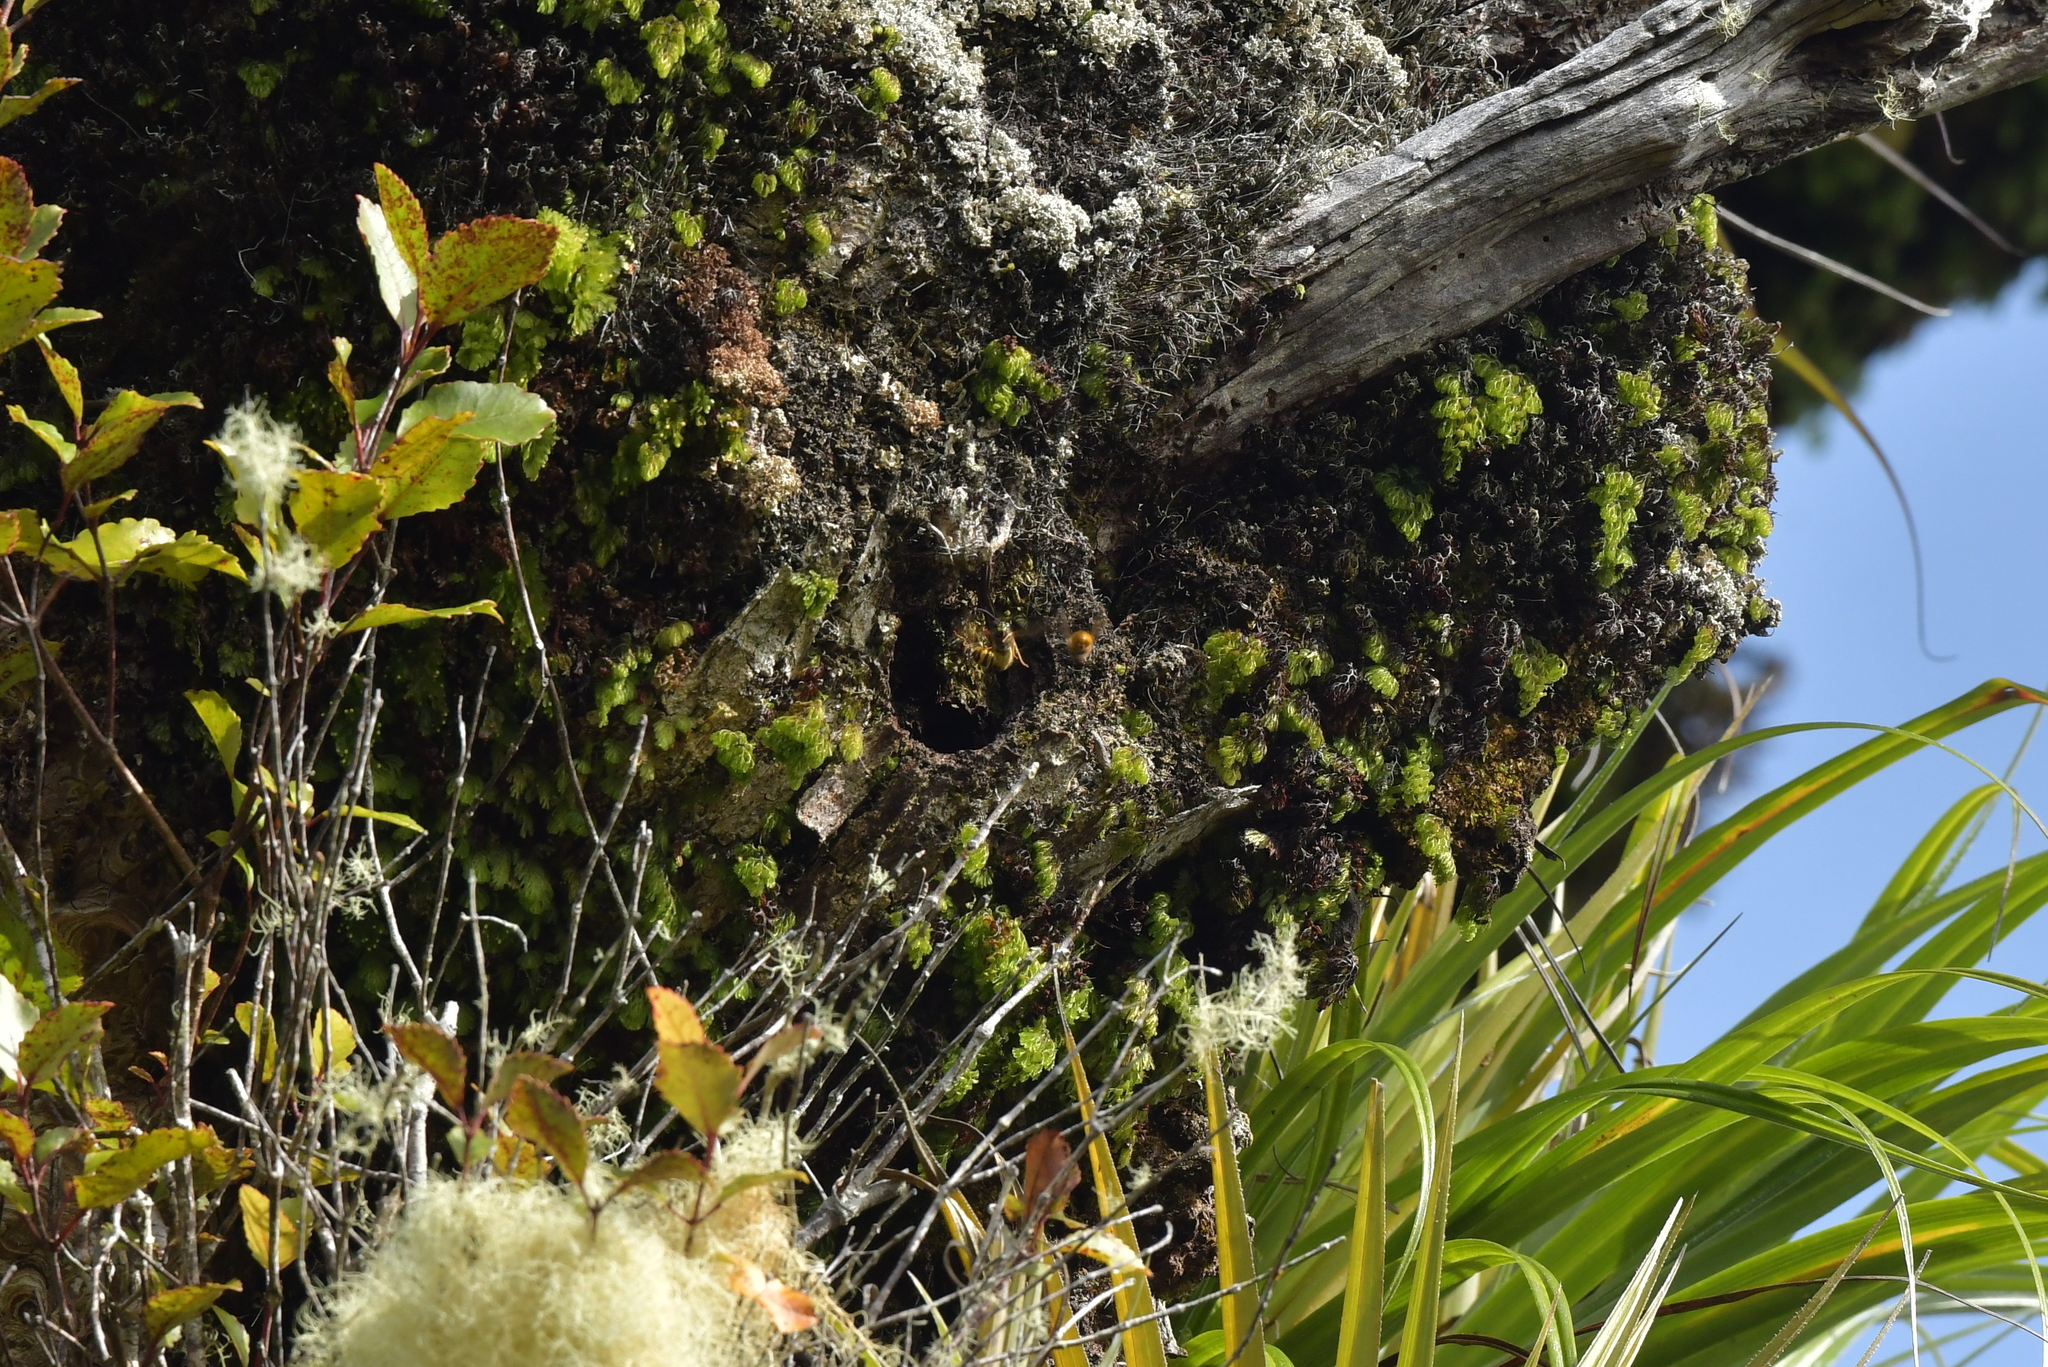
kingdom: Animalia
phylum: Arthropoda
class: Insecta
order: Hymenoptera
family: Vespidae
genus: Vespula
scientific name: Vespula vulgaris
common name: Common wasp
